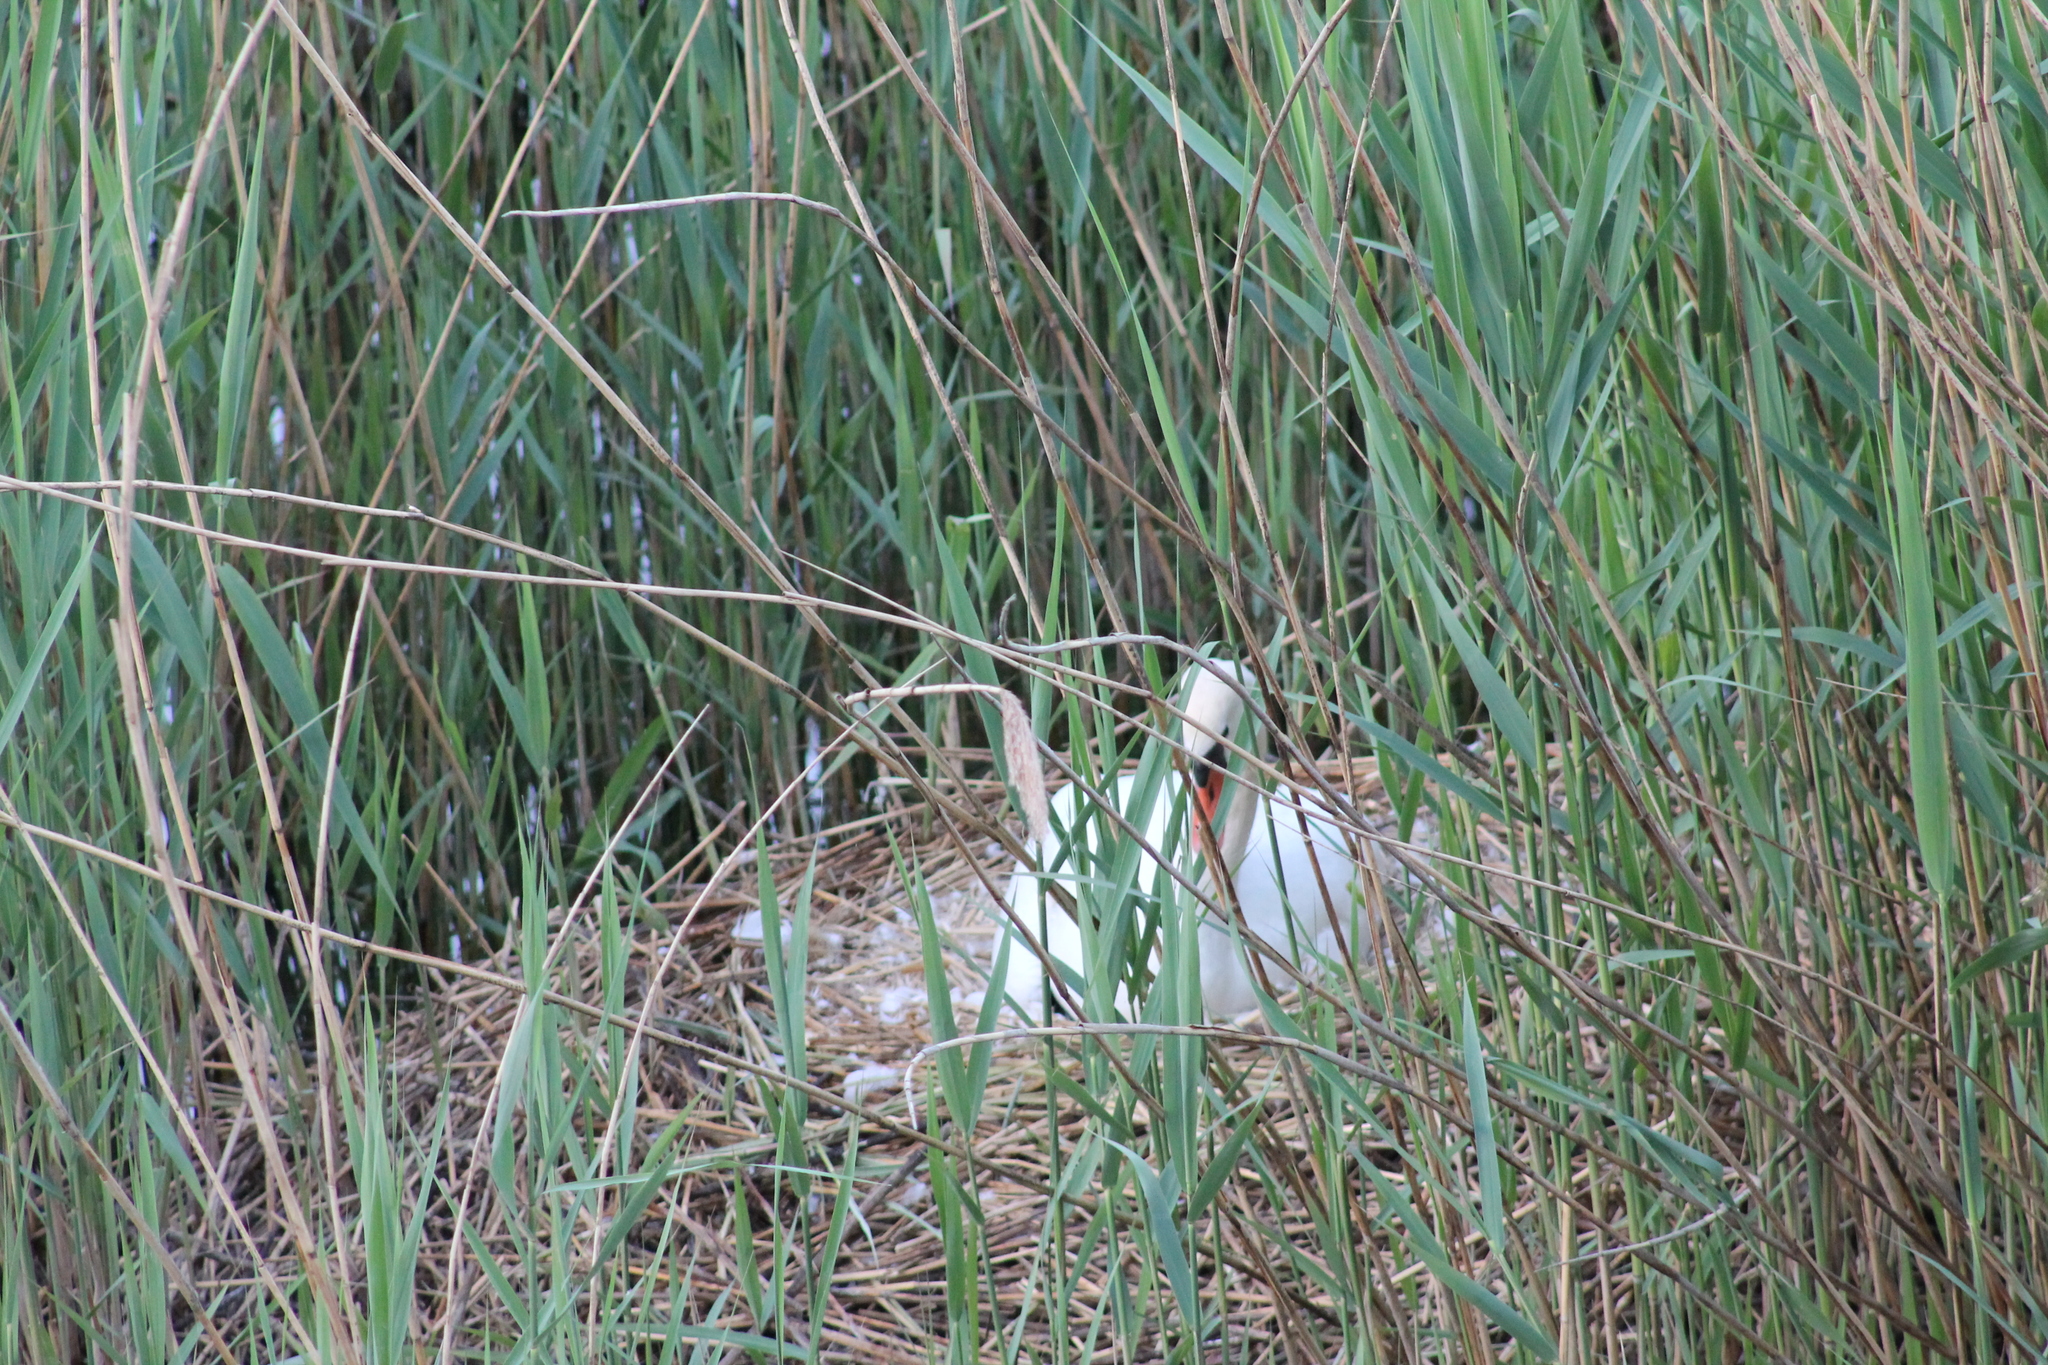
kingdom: Animalia
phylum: Chordata
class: Aves
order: Anseriformes
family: Anatidae
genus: Cygnus
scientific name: Cygnus olor
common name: Mute swan
